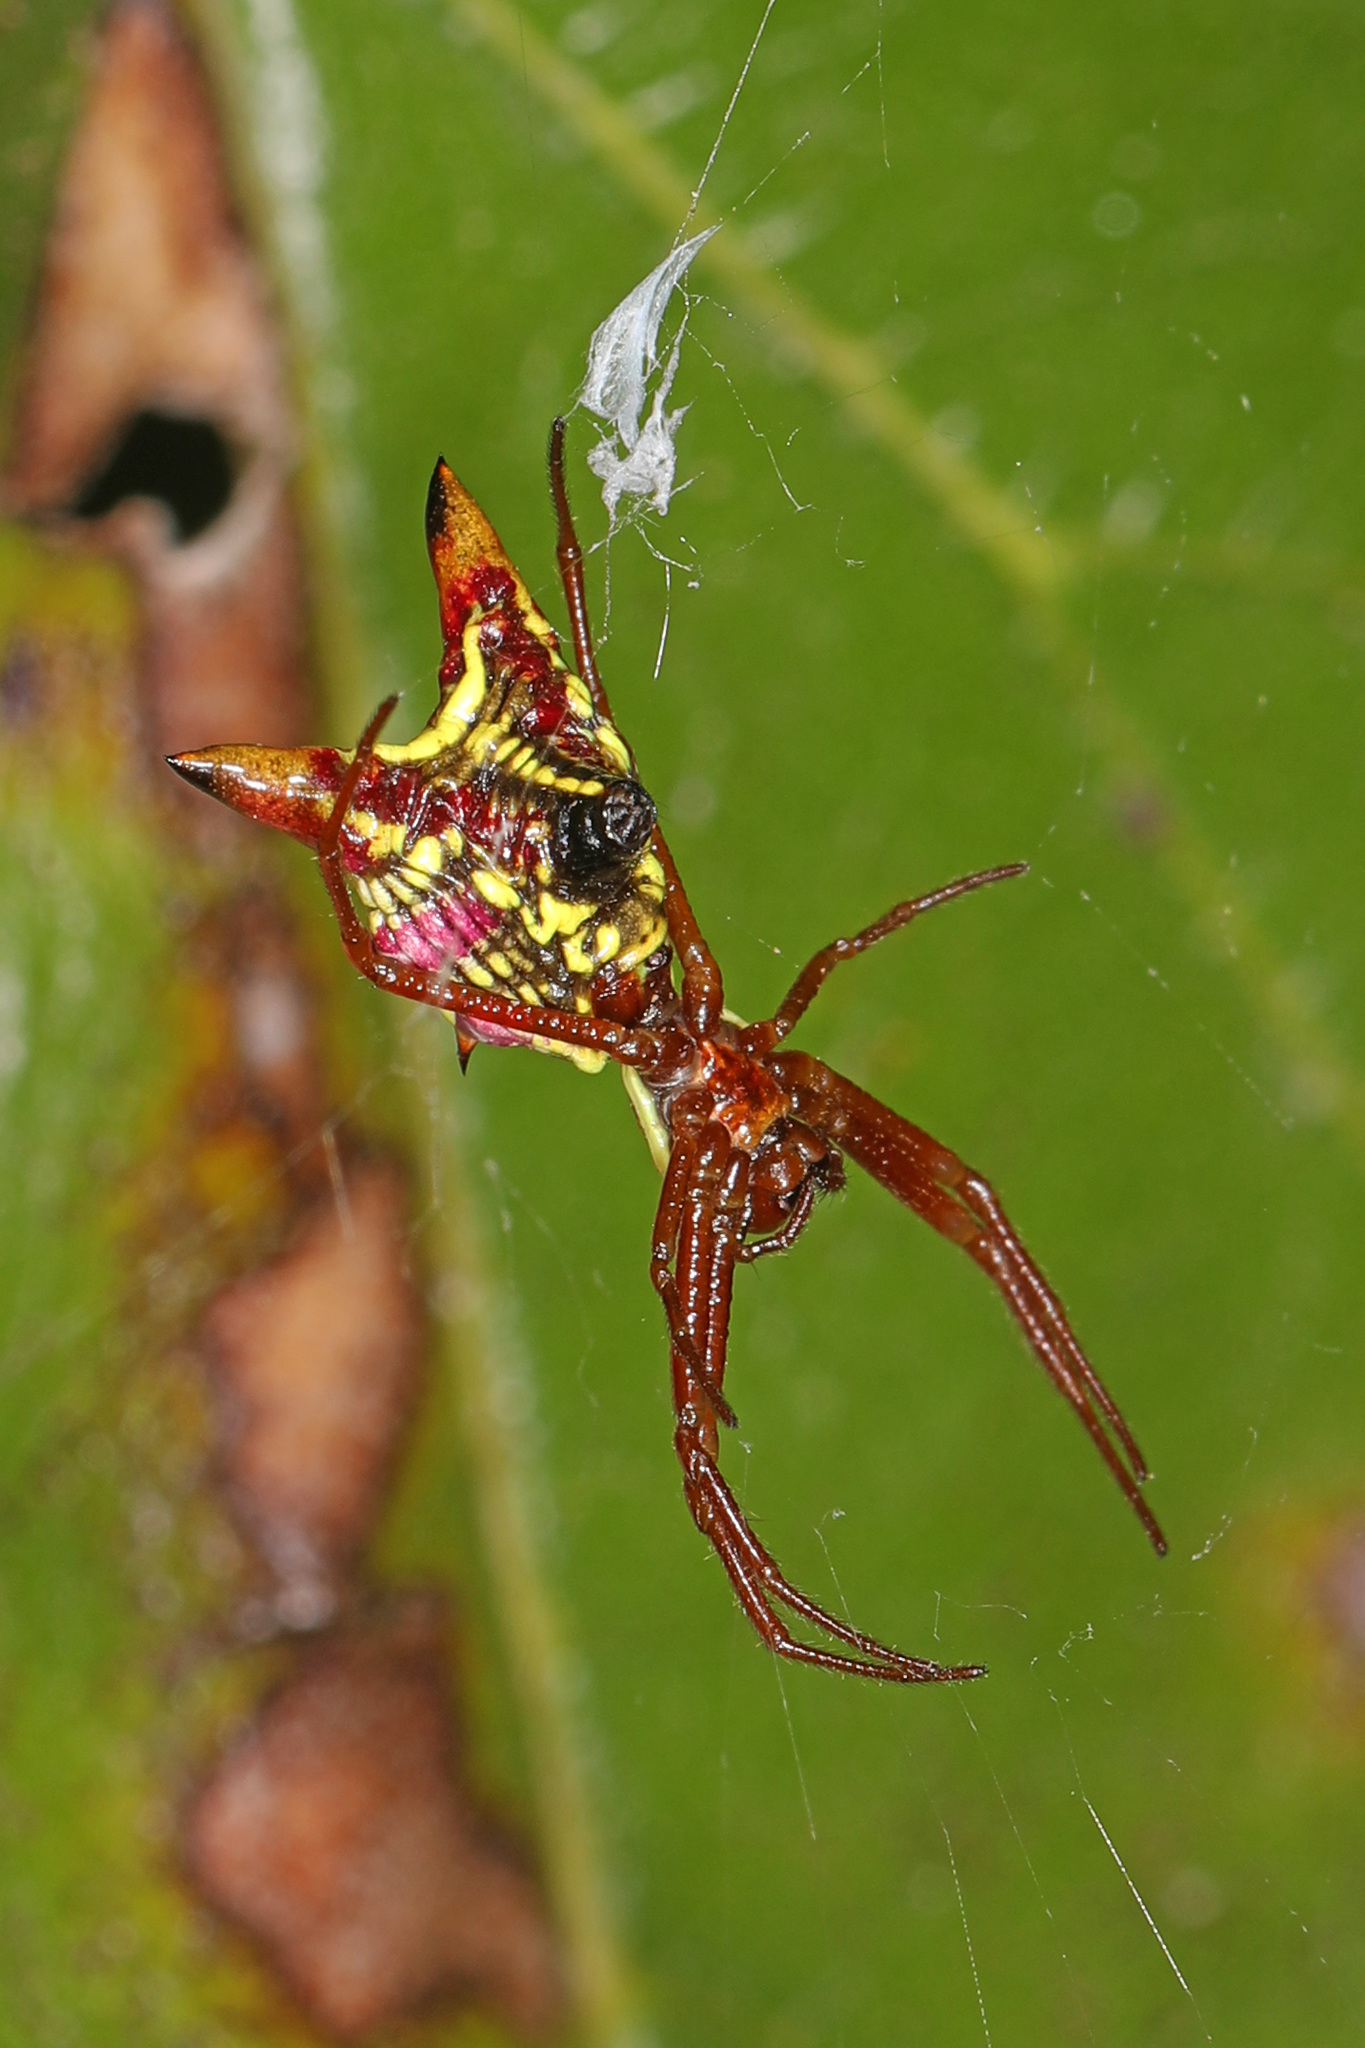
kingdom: Animalia
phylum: Arthropoda
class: Arachnida
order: Araneae
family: Araneidae
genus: Micrathena
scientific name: Micrathena sagittata
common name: Orb weavers
